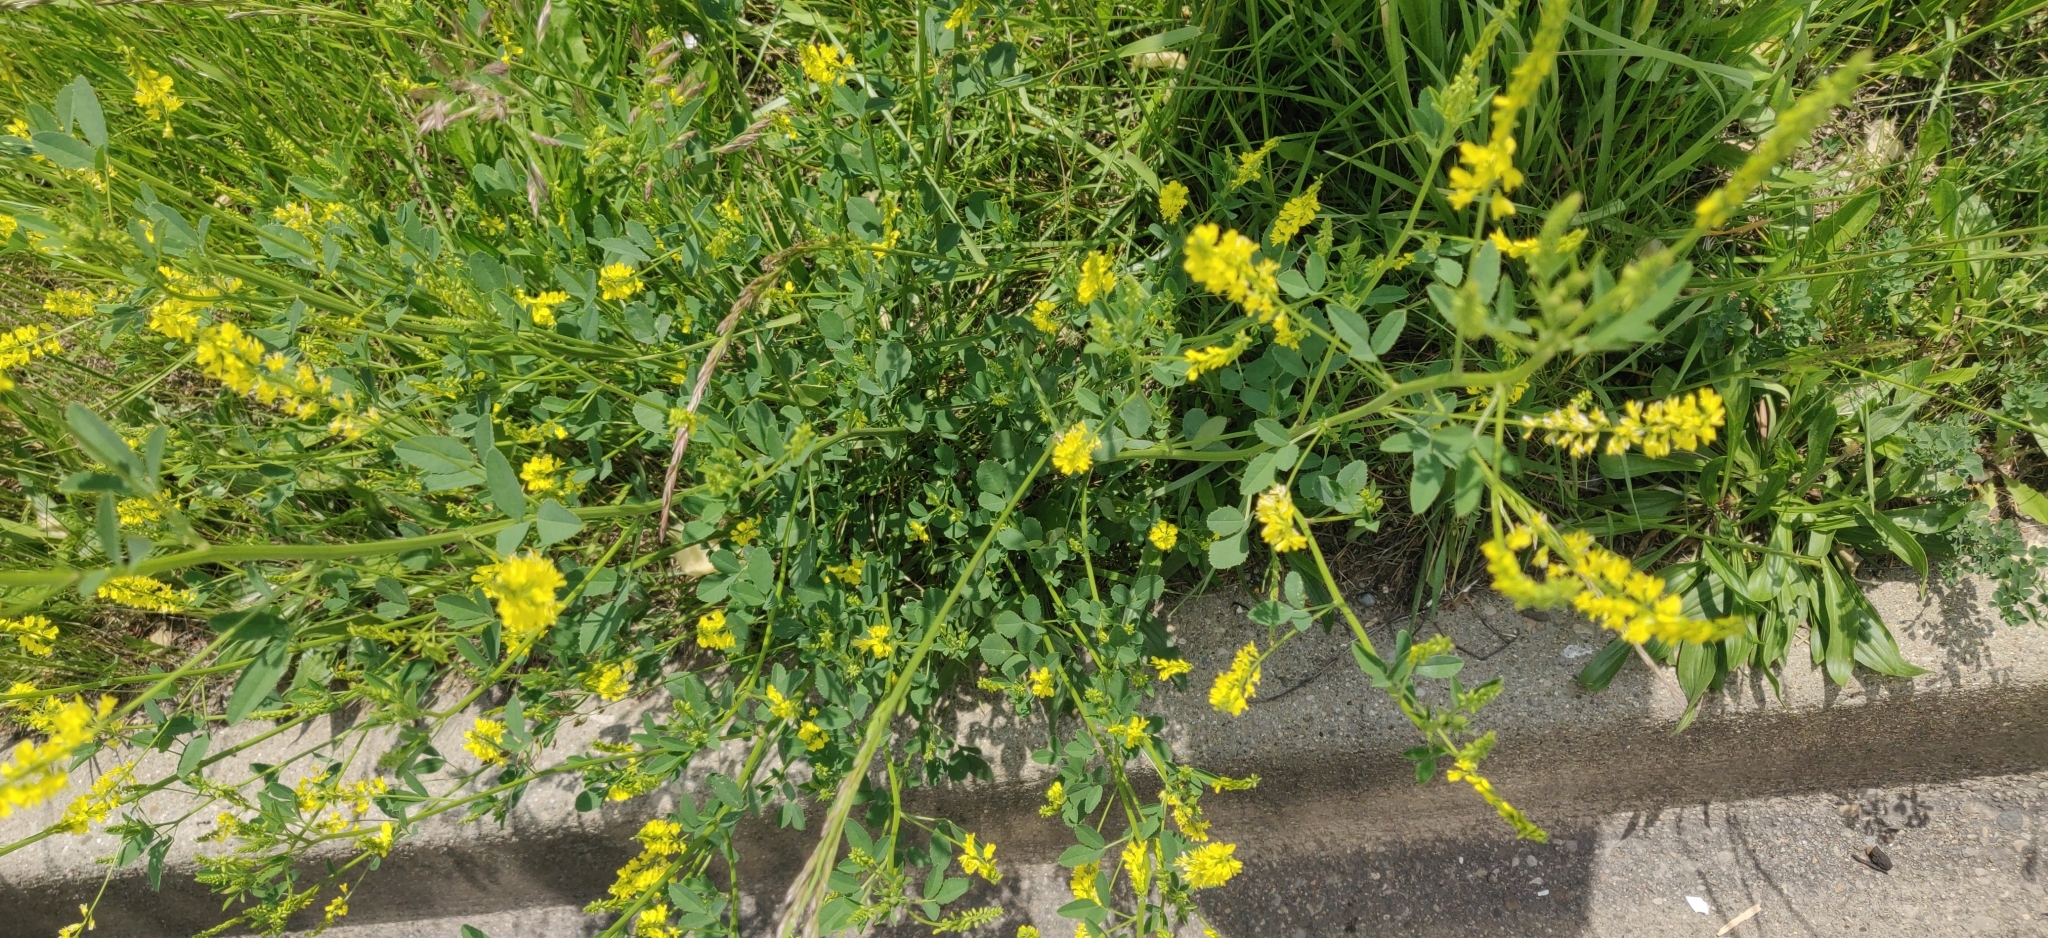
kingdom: Plantae
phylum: Tracheophyta
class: Magnoliopsida
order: Fabales
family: Fabaceae
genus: Melilotus
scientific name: Melilotus officinalis
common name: Sweetclover
